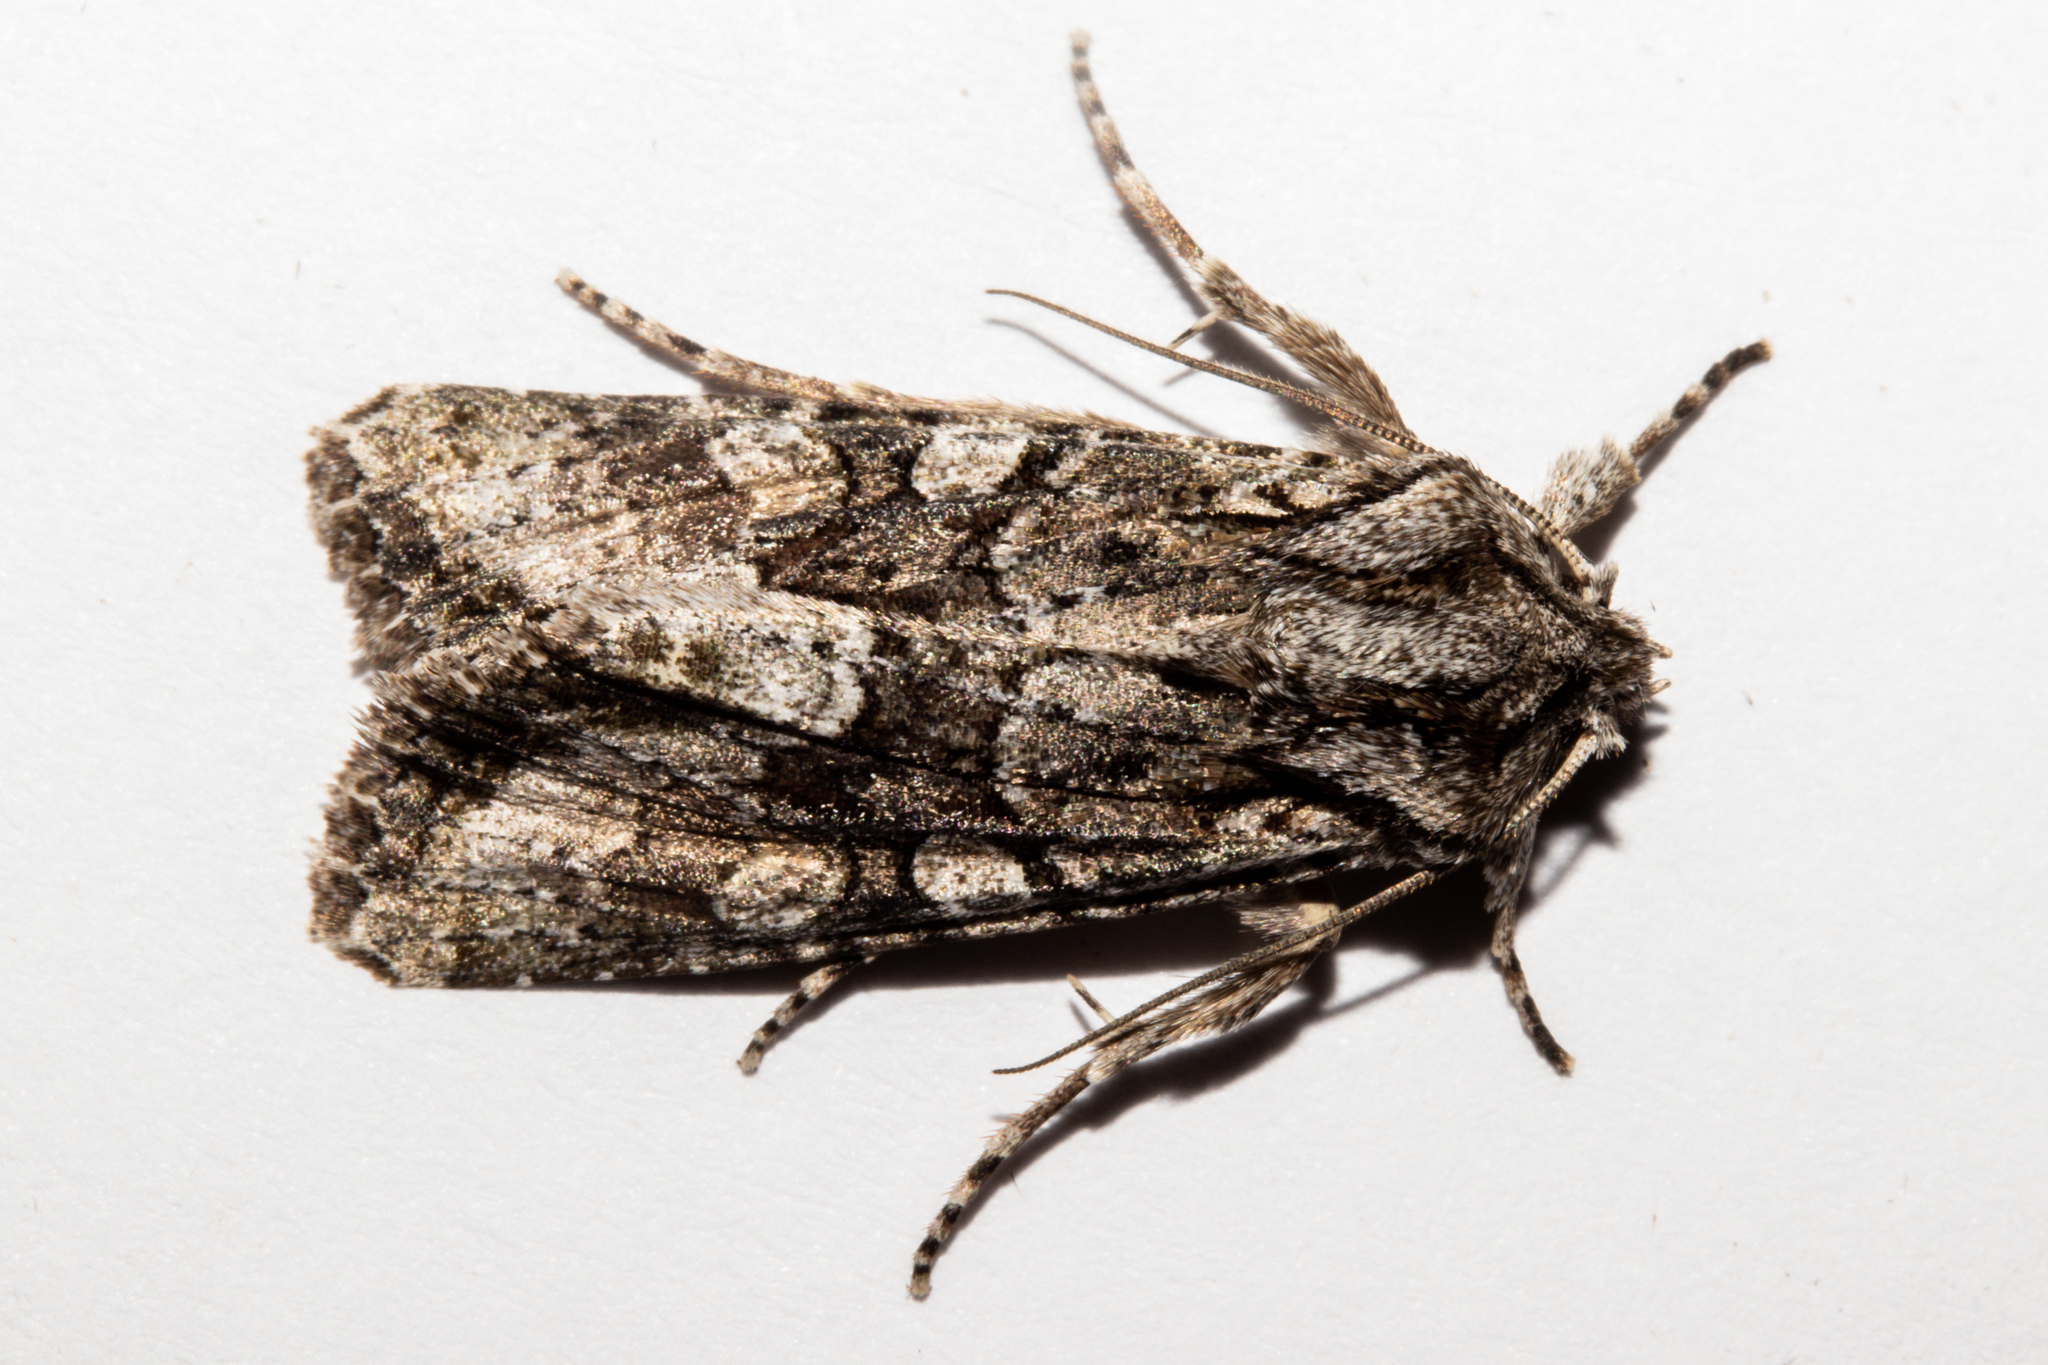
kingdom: Animalia
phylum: Arthropoda
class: Insecta
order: Lepidoptera
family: Noctuidae
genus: Ichneutica
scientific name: Ichneutica mutans
